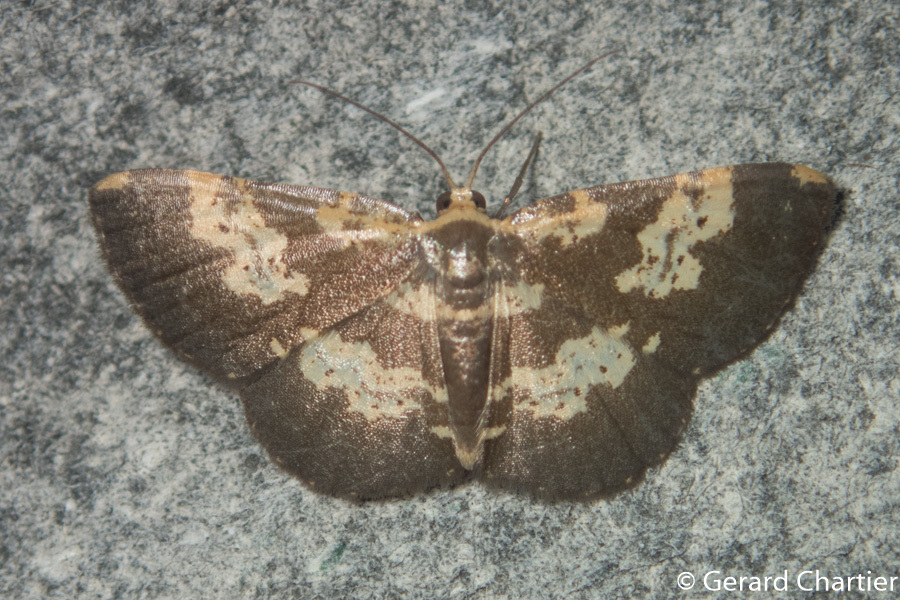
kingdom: Animalia
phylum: Arthropoda
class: Insecta
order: Lepidoptera
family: Geometridae
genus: Peratophyga
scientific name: Peratophyga bifasciata
